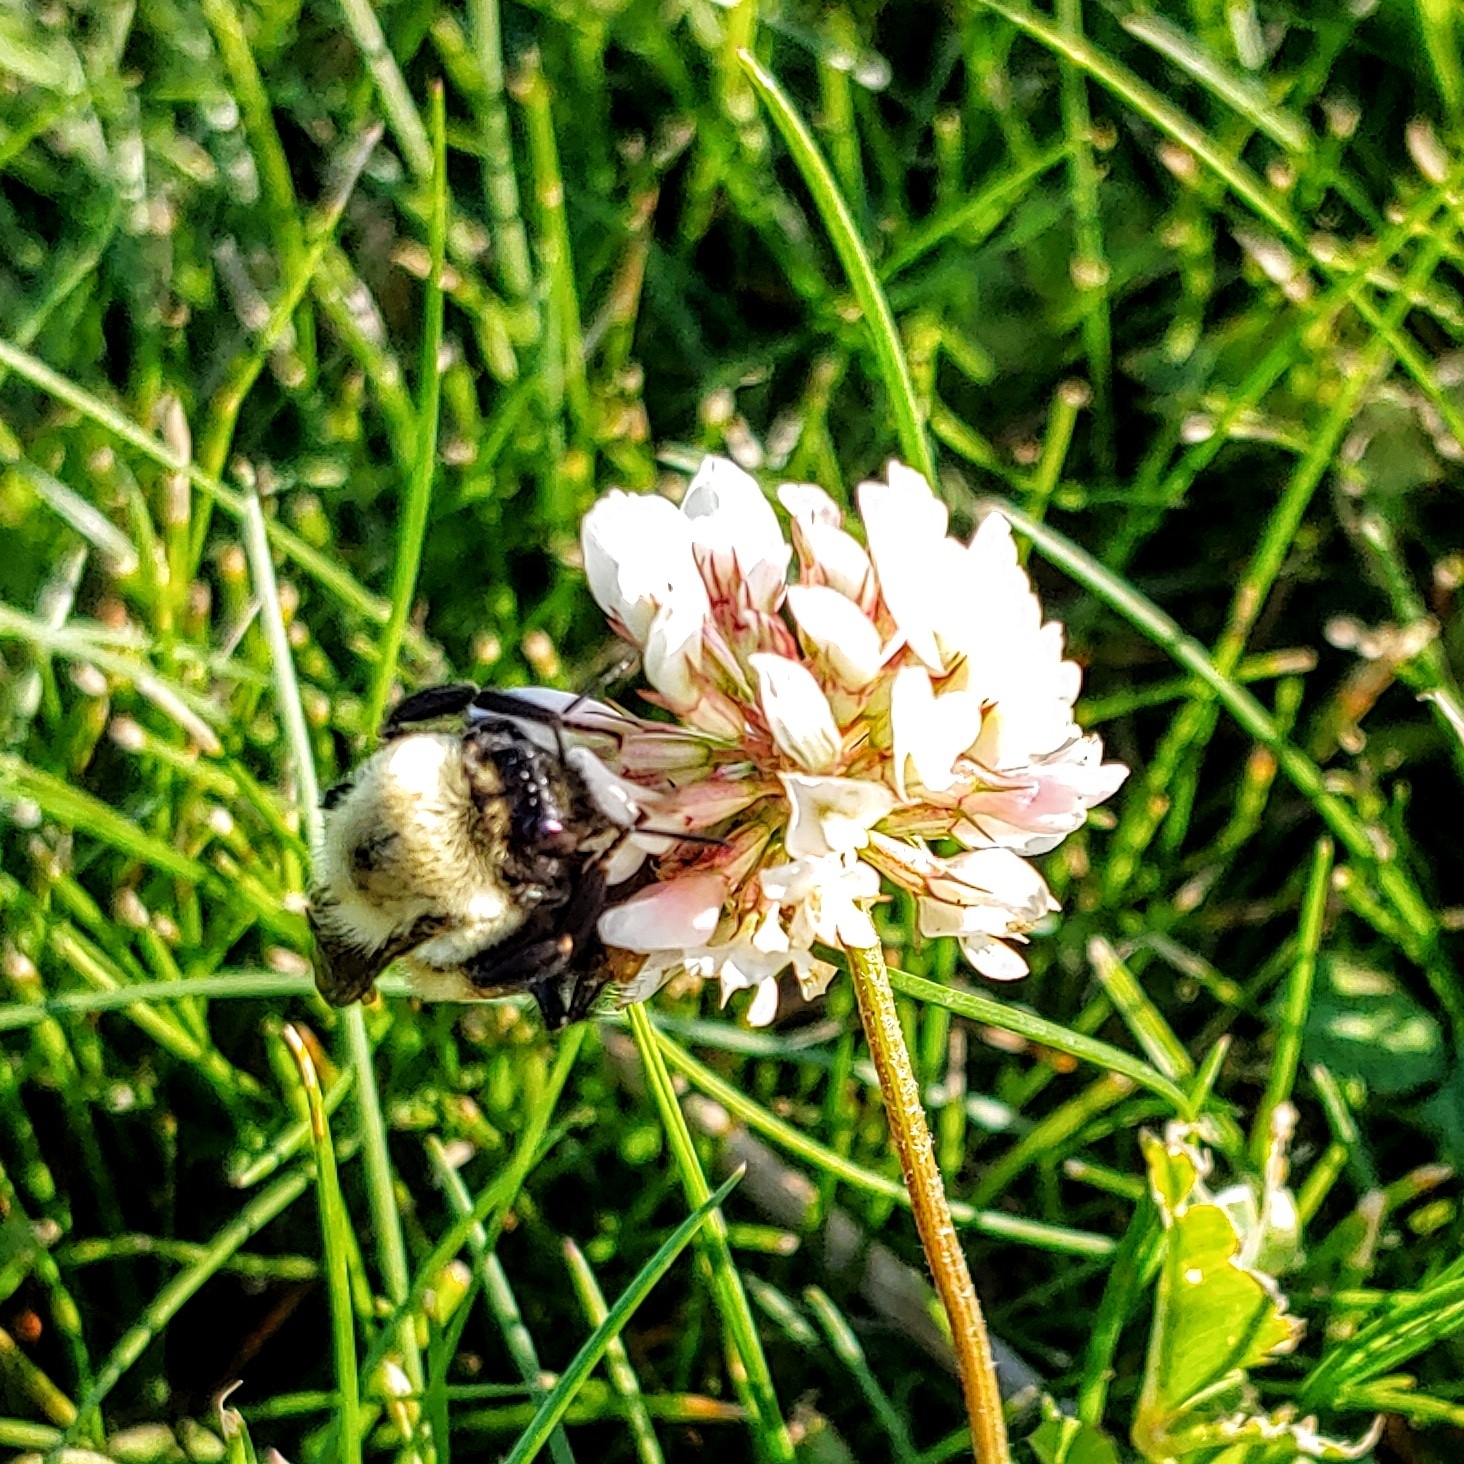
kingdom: Animalia
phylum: Arthropoda
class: Insecta
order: Hymenoptera
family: Apidae
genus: Bombus
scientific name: Bombus griseocollis
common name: Brown-belted bumble bee
